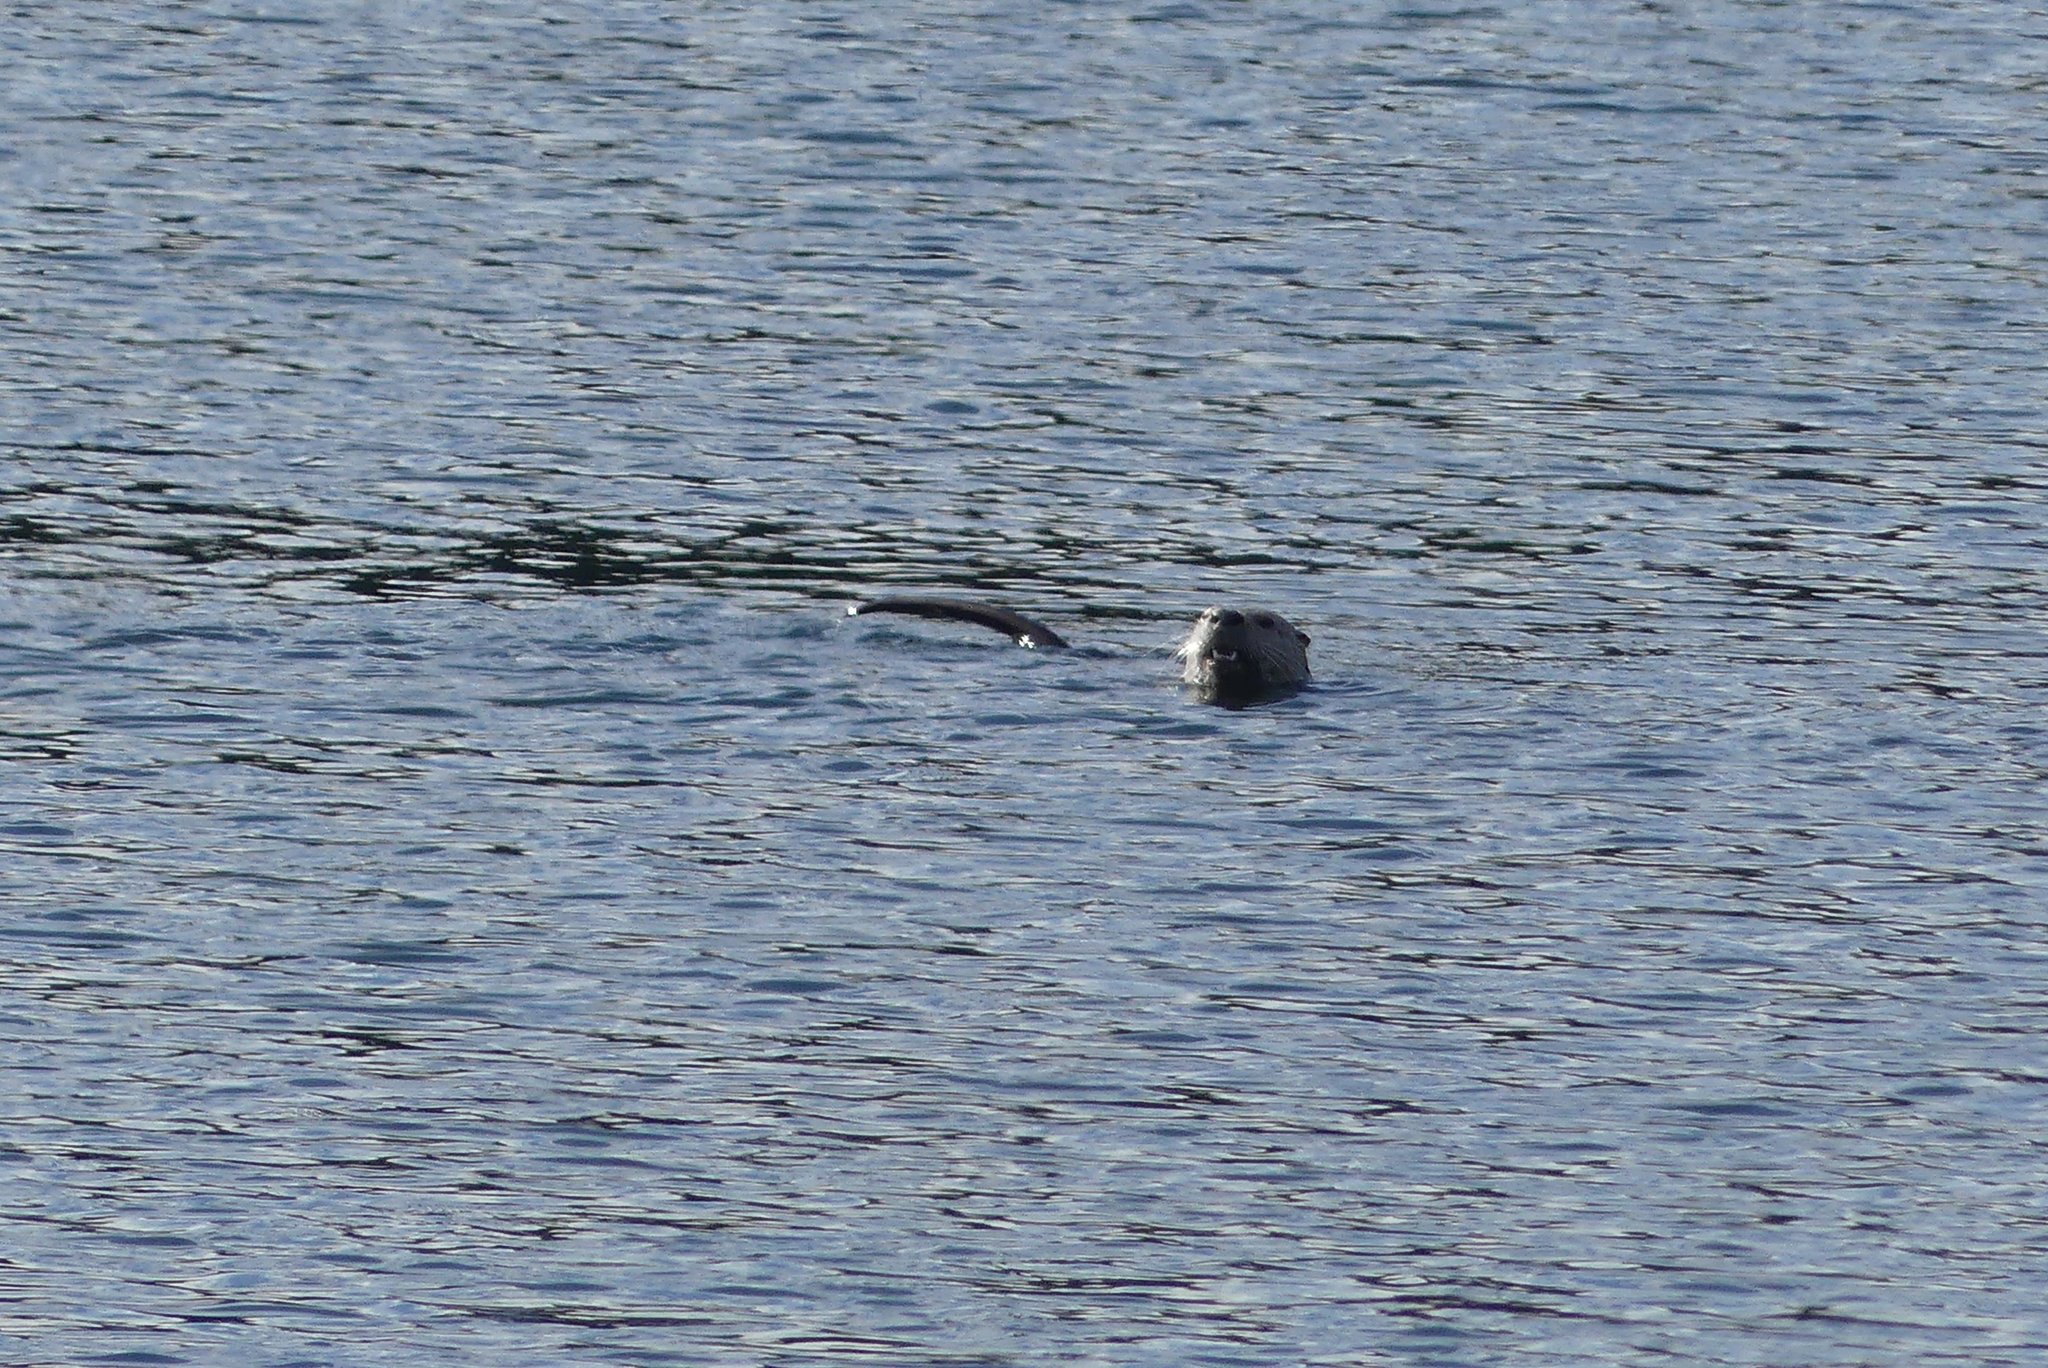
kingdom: Animalia
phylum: Chordata
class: Mammalia
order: Carnivora
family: Mustelidae
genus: Lontra
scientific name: Lontra canadensis
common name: North american river otter
